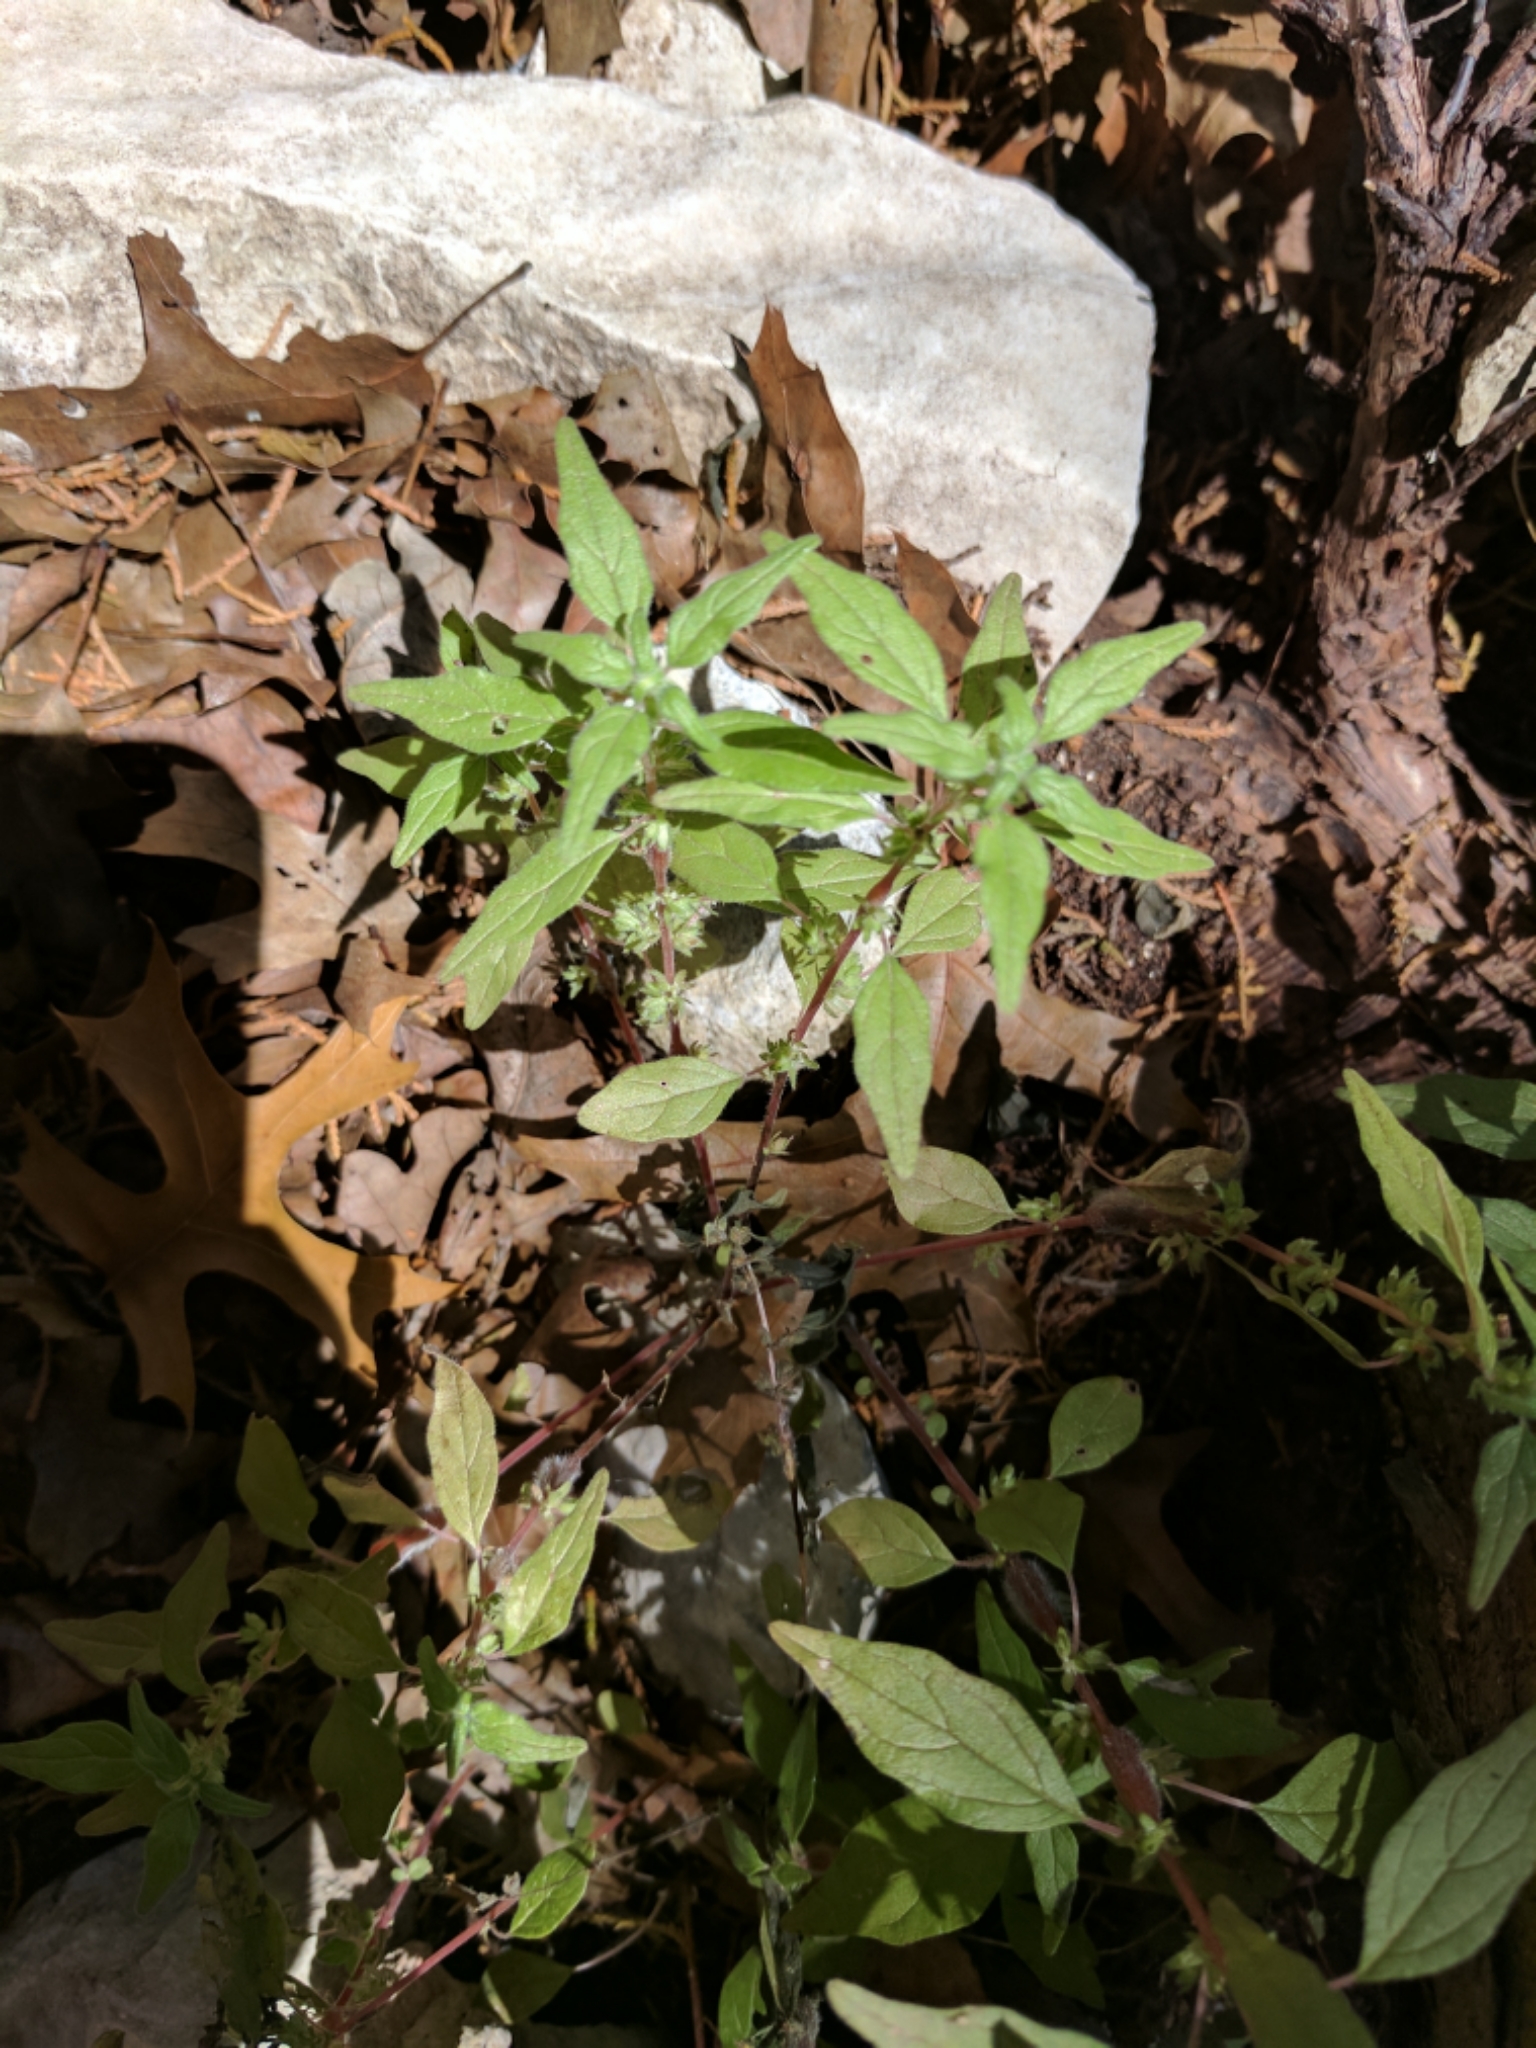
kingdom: Plantae
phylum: Tracheophyta
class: Magnoliopsida
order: Rosales
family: Urticaceae
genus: Parietaria
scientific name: Parietaria pensylvanica
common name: Pennsylvania pellitory
